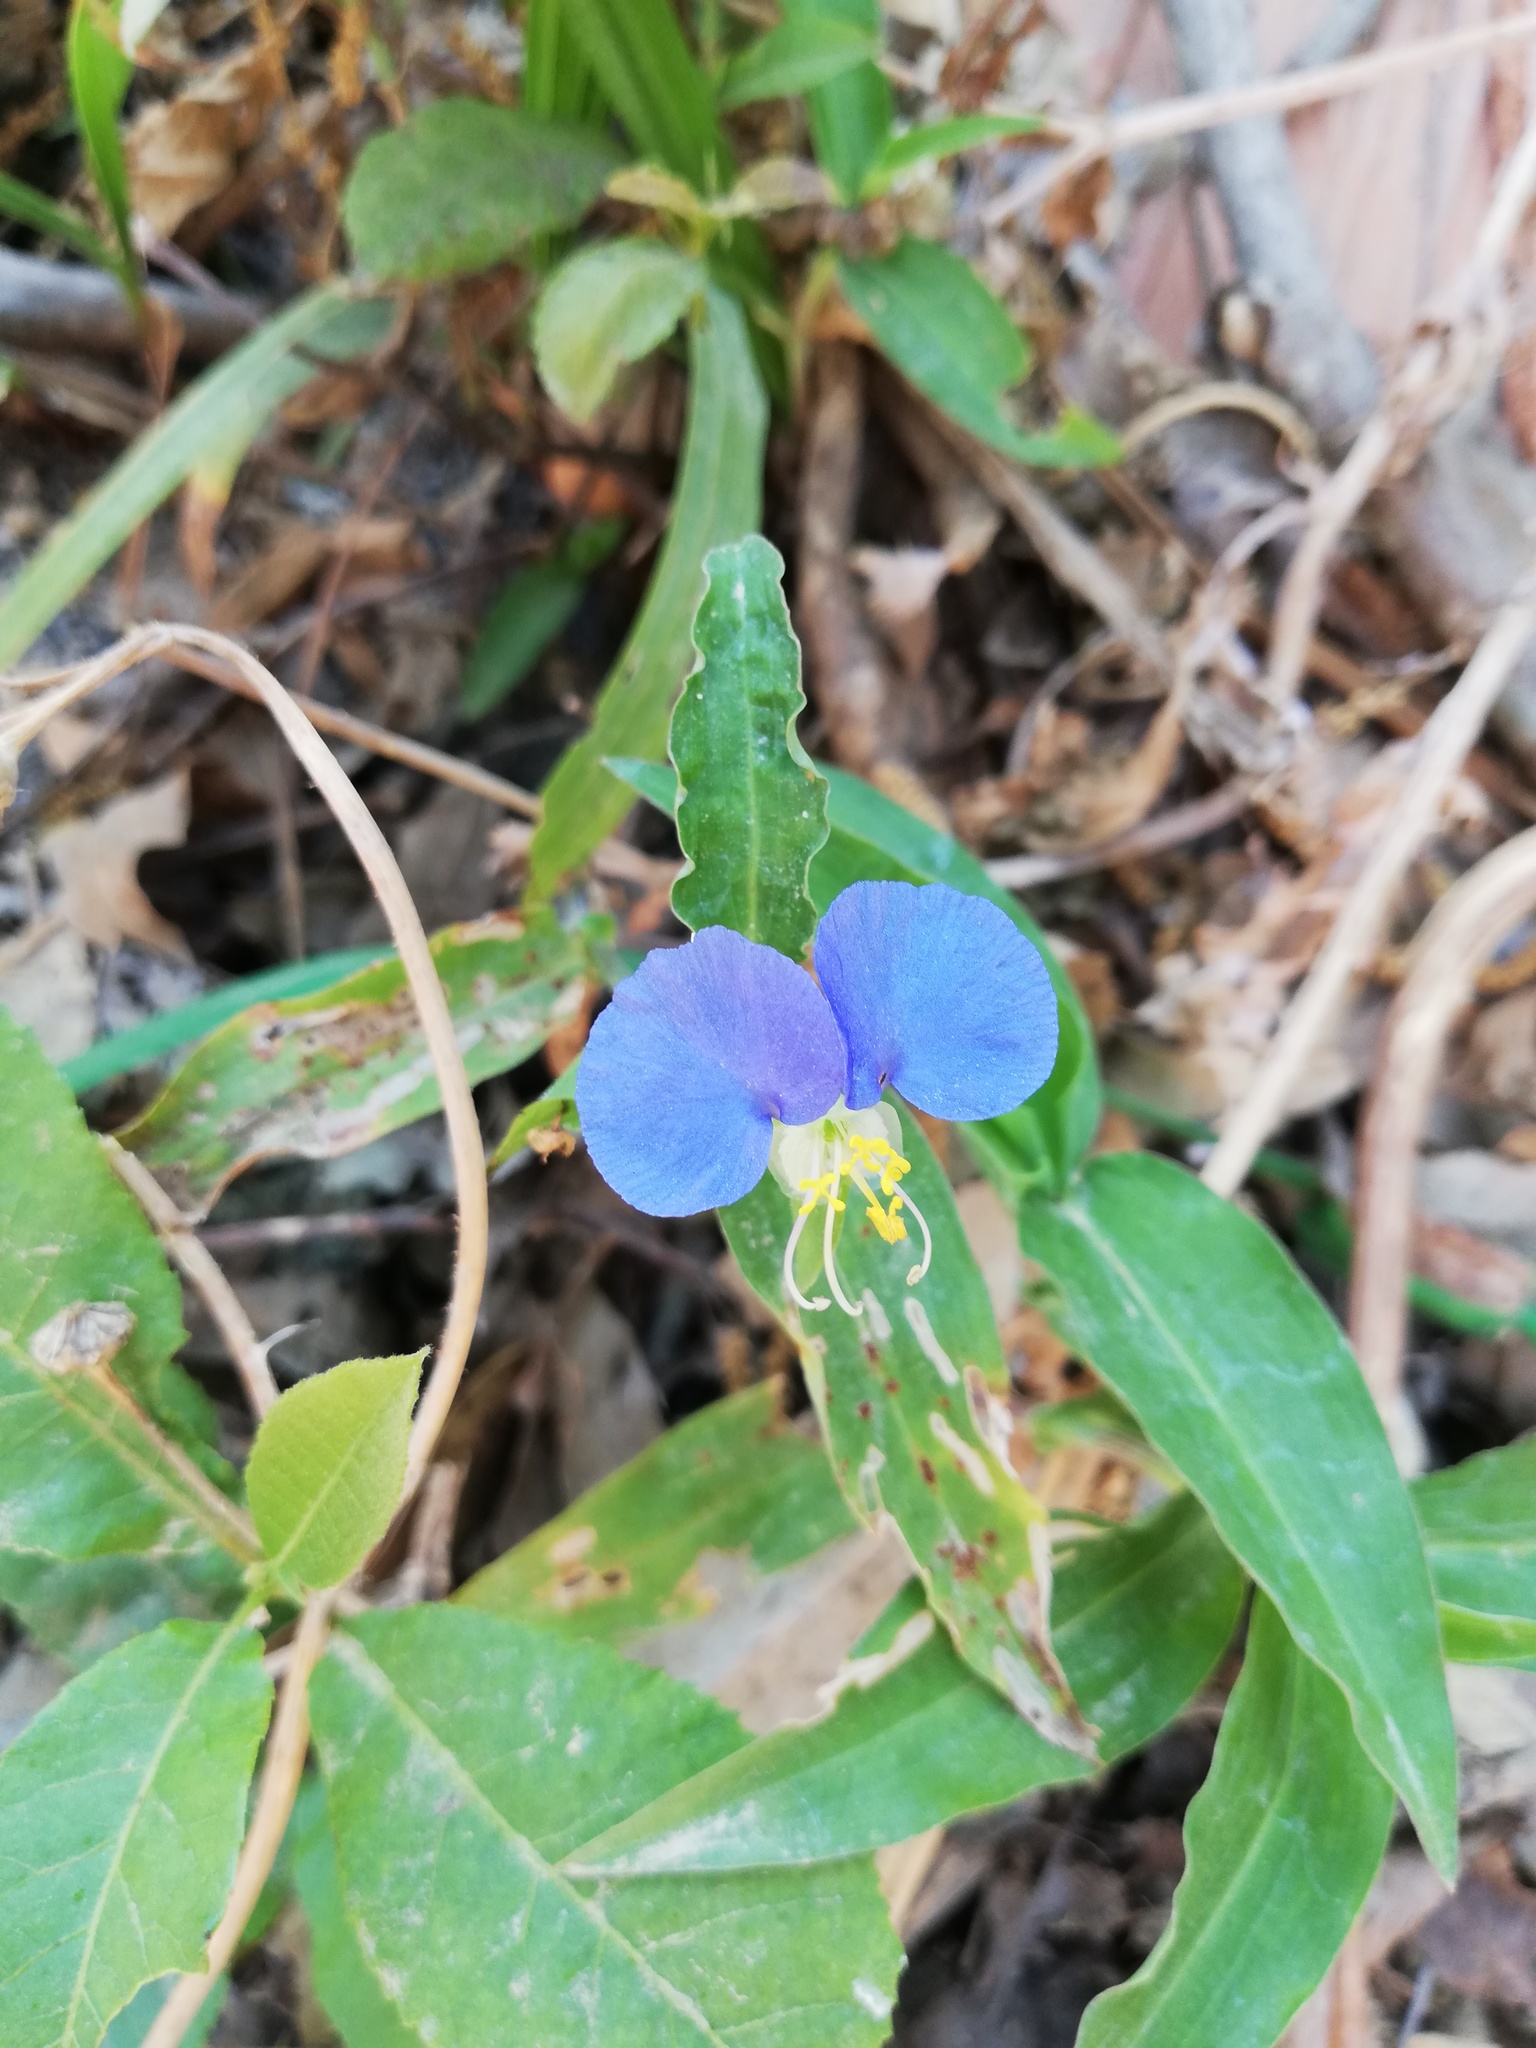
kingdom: Plantae
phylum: Tracheophyta
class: Liliopsida
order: Commelinales
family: Commelinaceae
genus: Commelina
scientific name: Commelina erecta
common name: Blousel blommetjie
